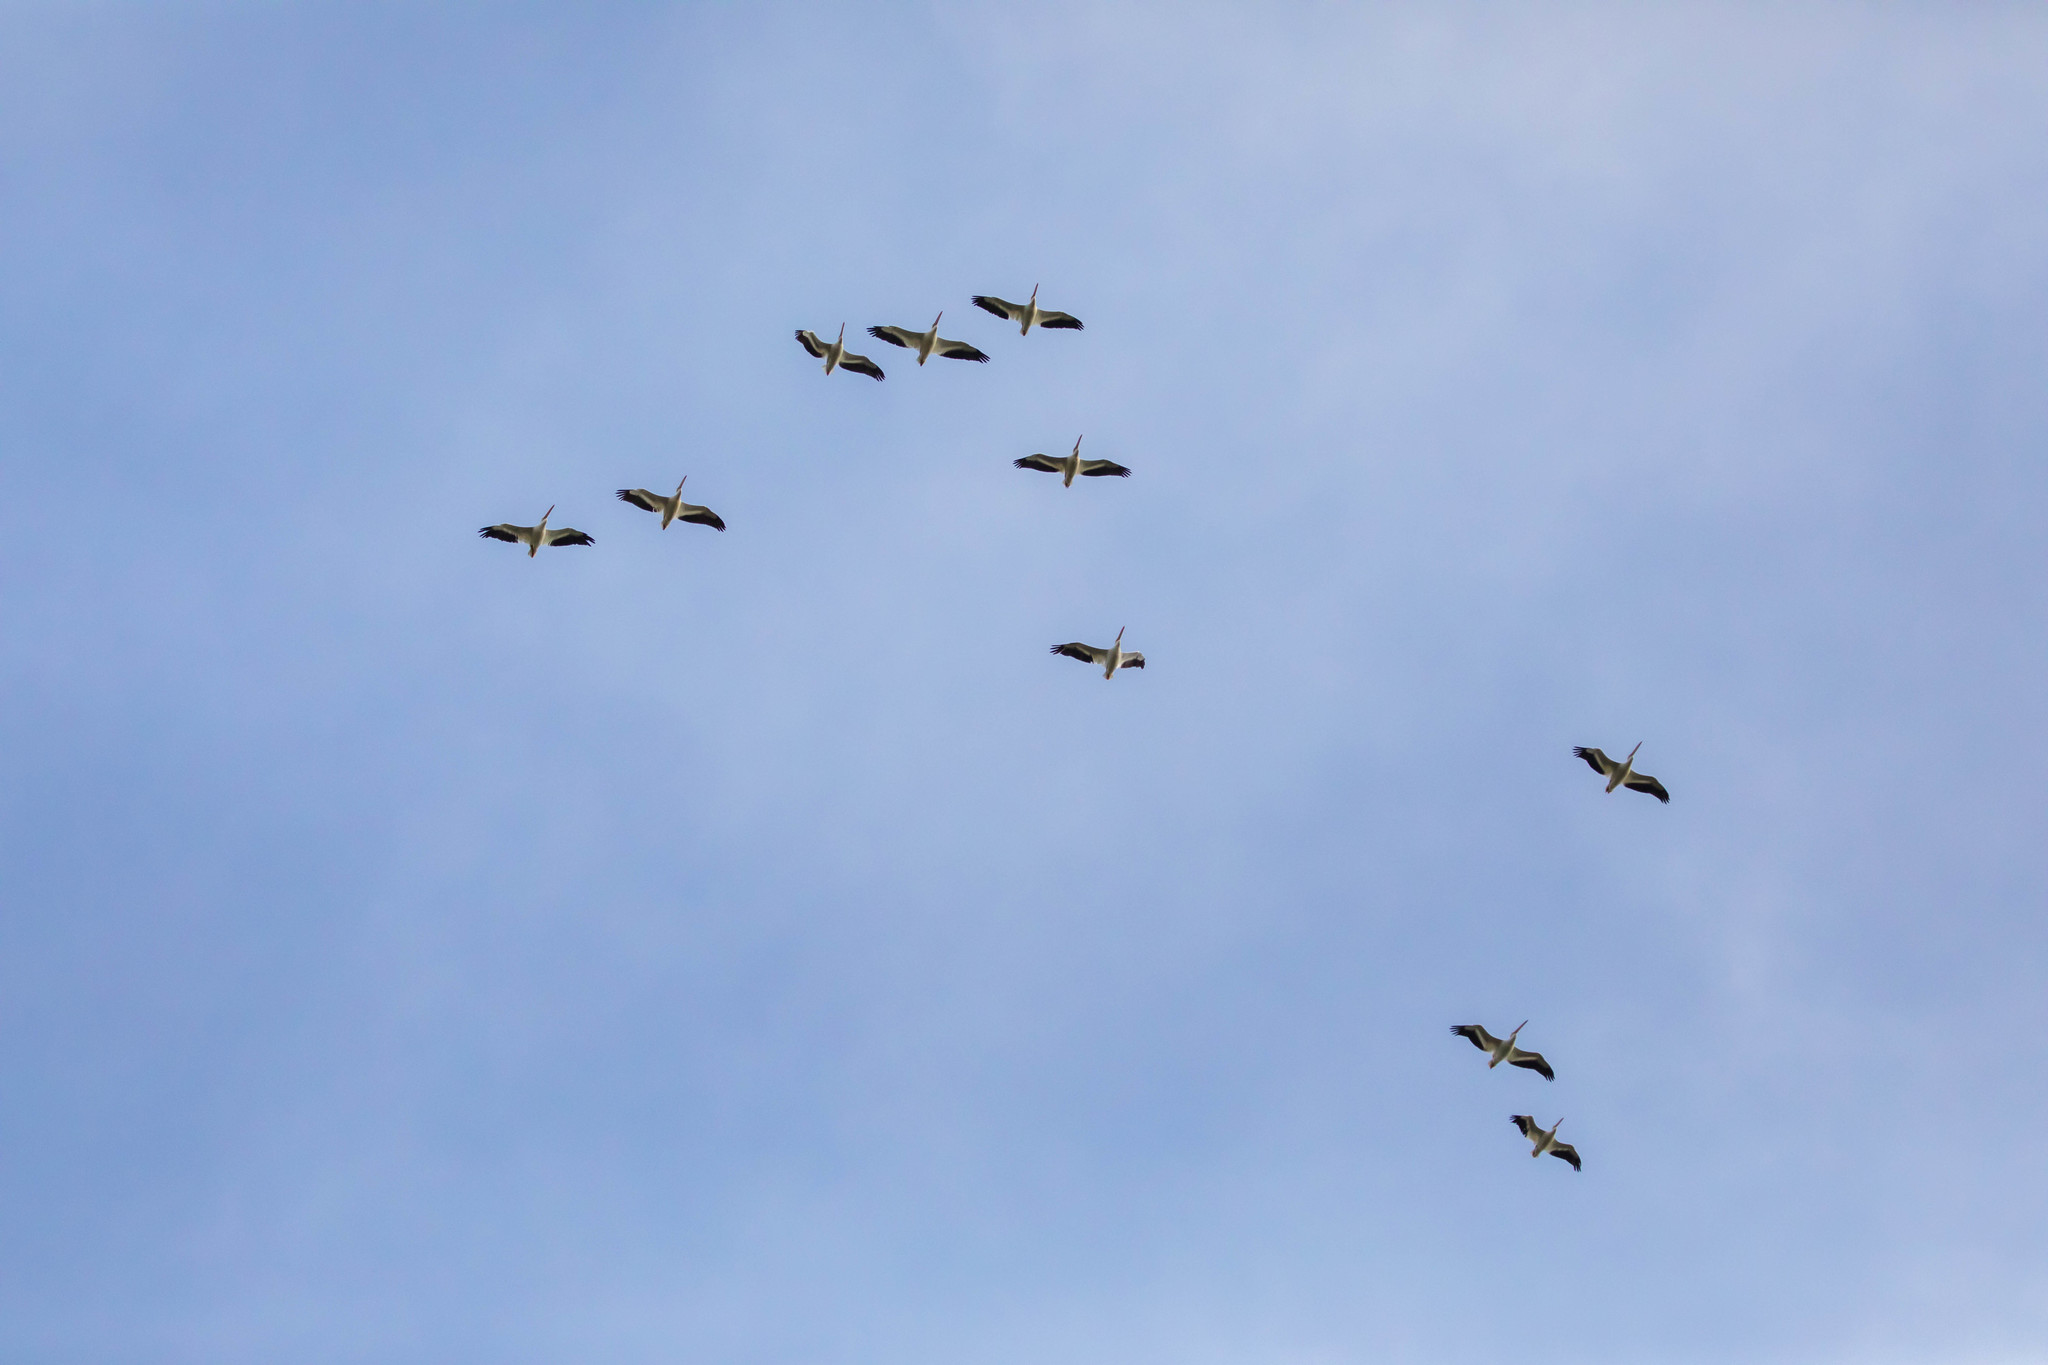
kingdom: Animalia
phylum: Chordata
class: Aves
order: Pelecaniformes
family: Pelecanidae
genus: Pelecanus
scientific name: Pelecanus erythrorhynchos
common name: American white pelican
